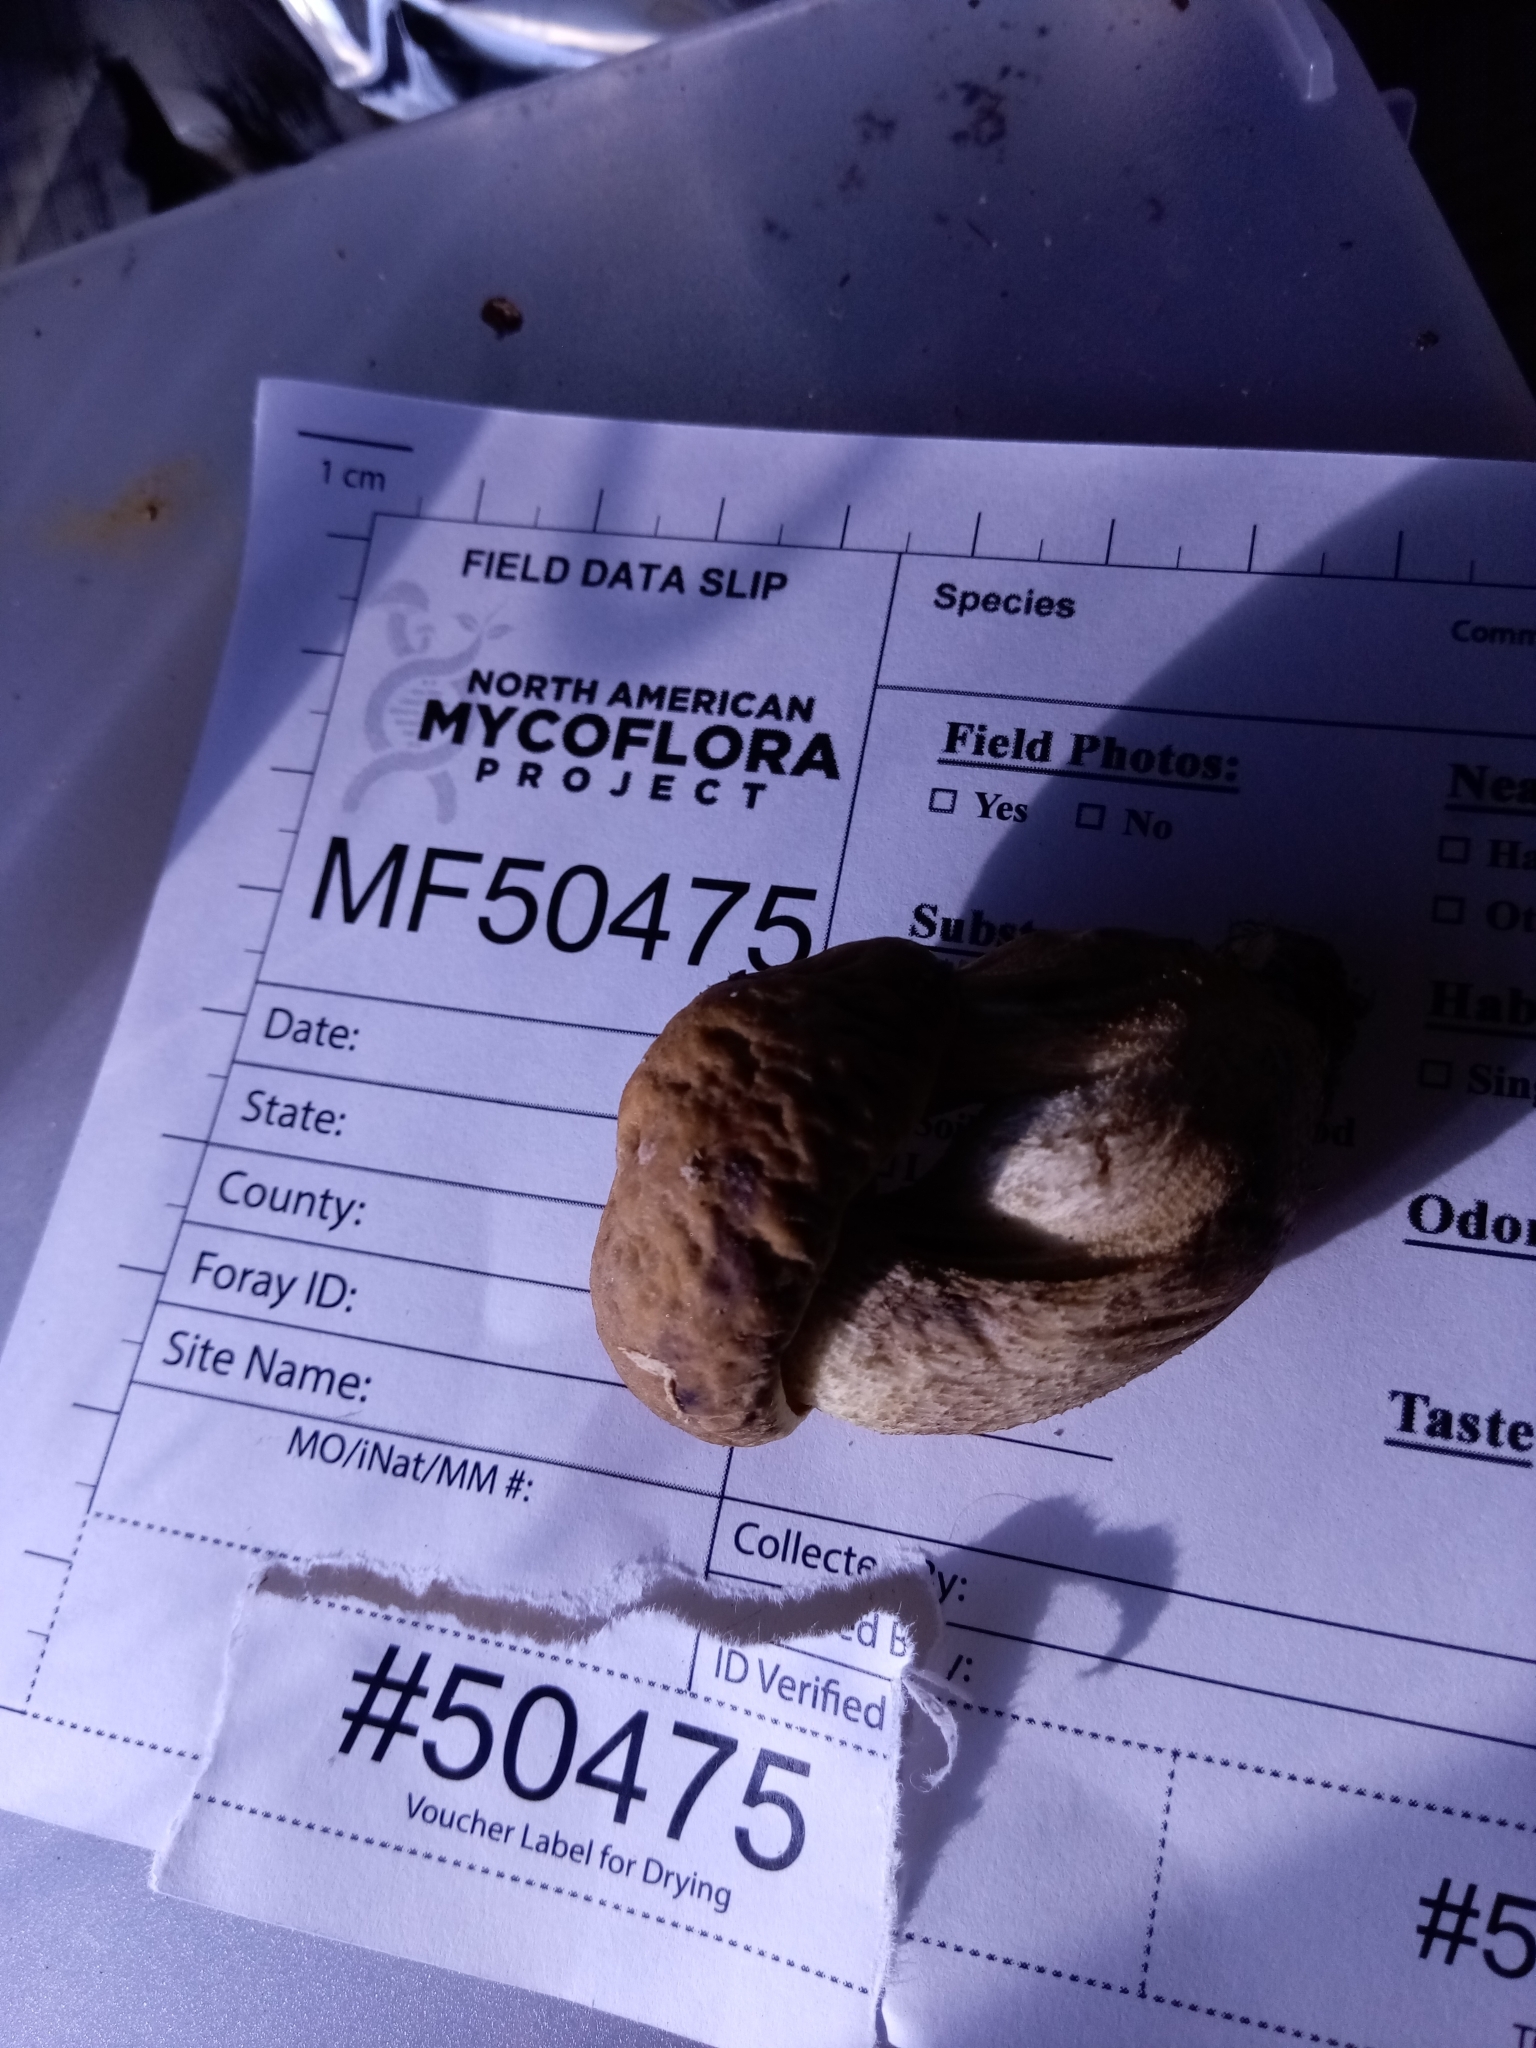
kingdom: Fungi
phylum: Basidiomycota
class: Agaricomycetes
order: Boletales
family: Boletaceae
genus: Leccinellum
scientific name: Leccinellum crocipodium
